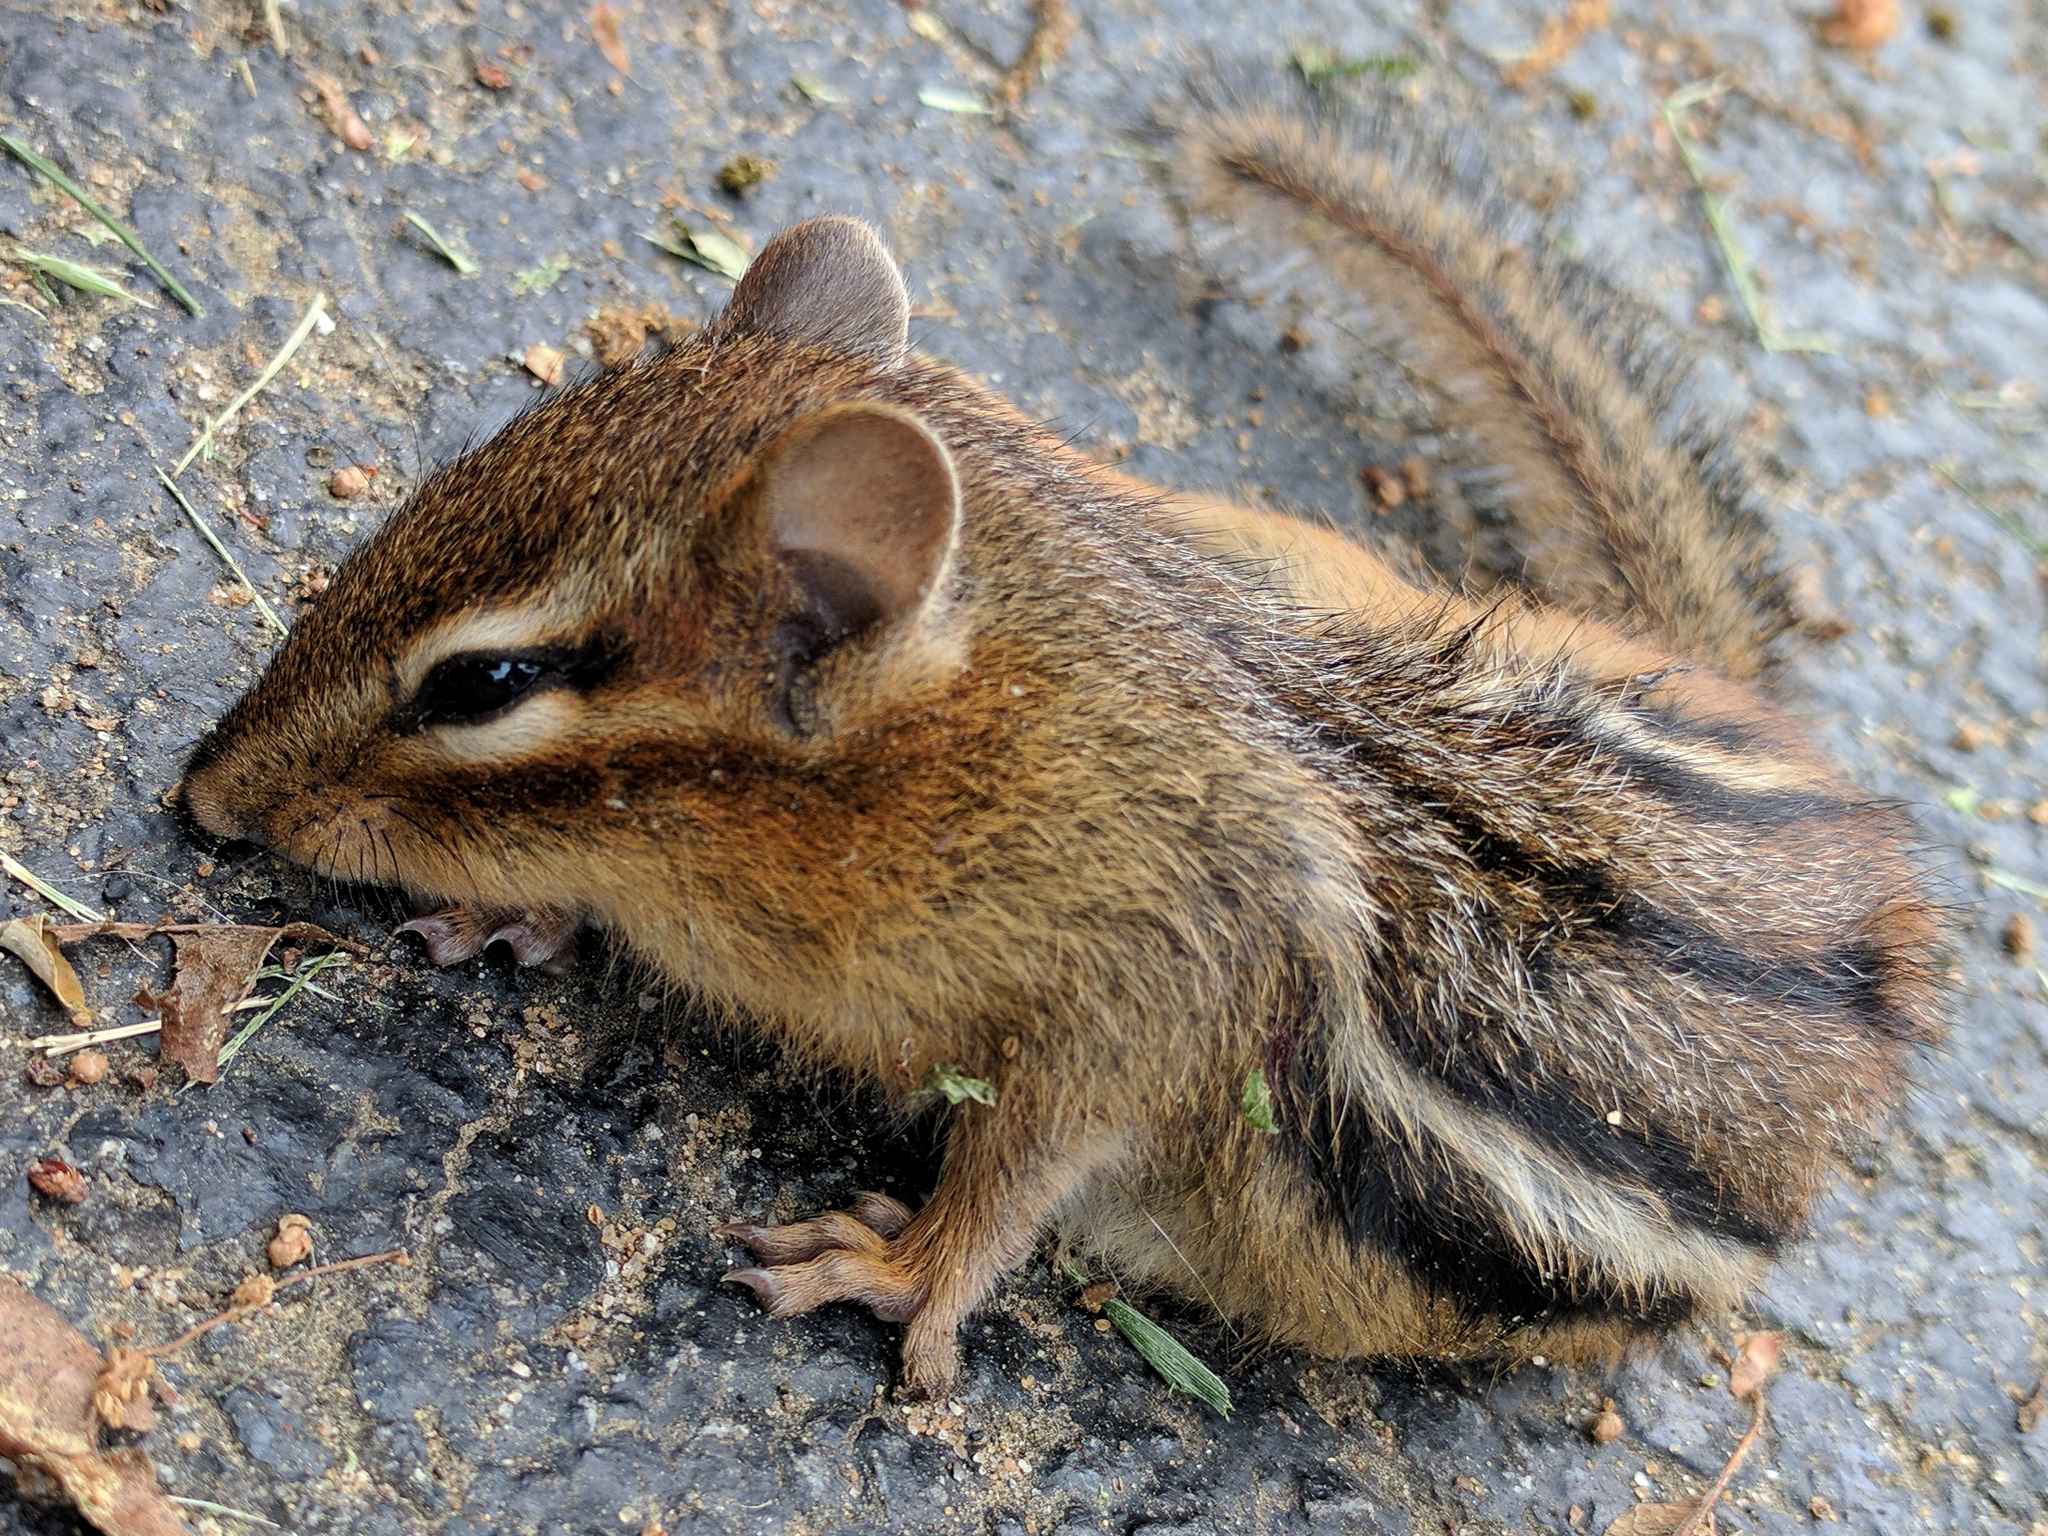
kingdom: Animalia
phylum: Chordata
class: Mammalia
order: Rodentia
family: Sciuridae
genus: Tamias
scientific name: Tamias striatus
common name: Eastern chipmunk
